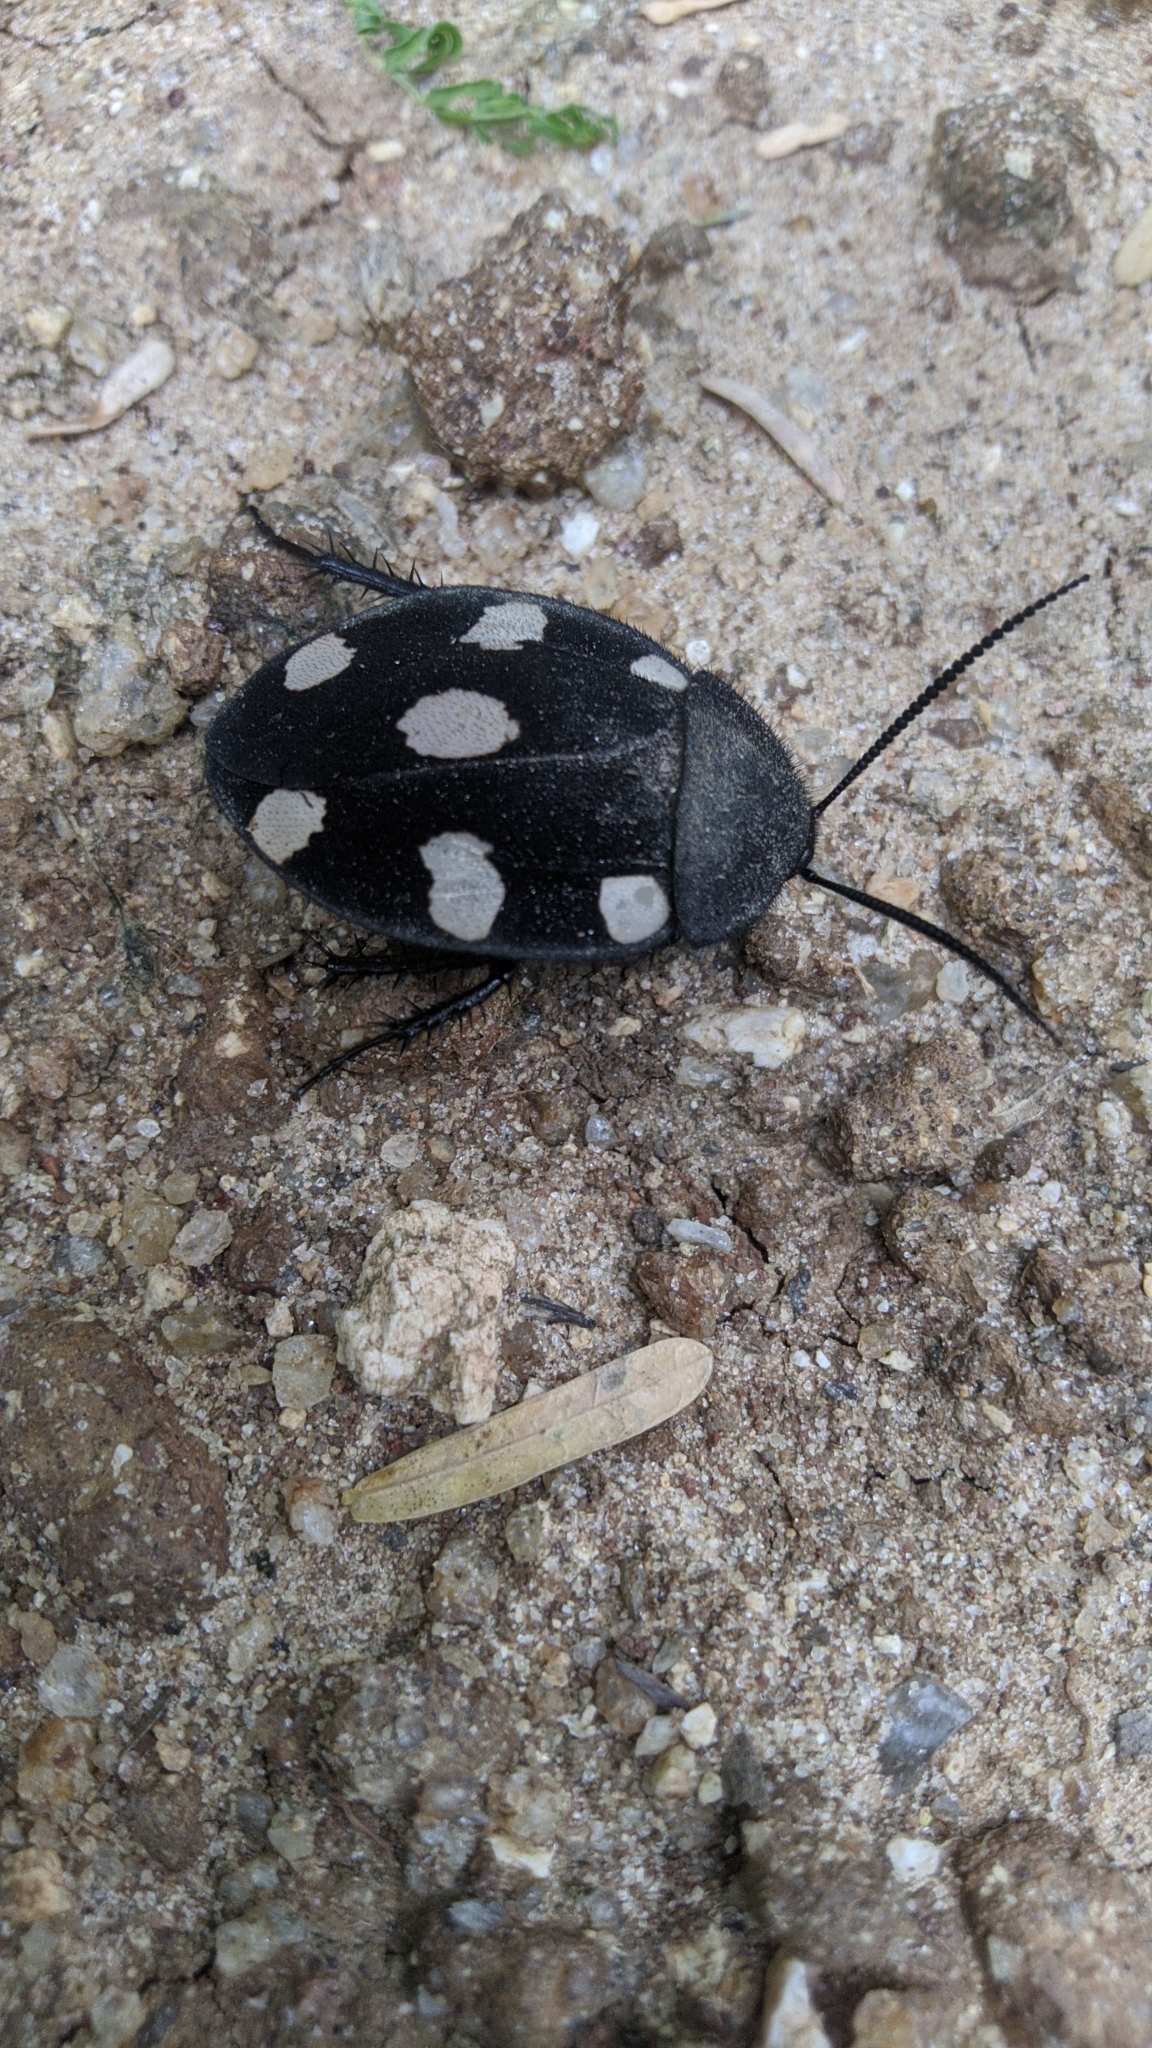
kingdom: Animalia
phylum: Arthropoda
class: Insecta
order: Blattodea
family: Corydiidae
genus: Therea
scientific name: Therea petiveriana
